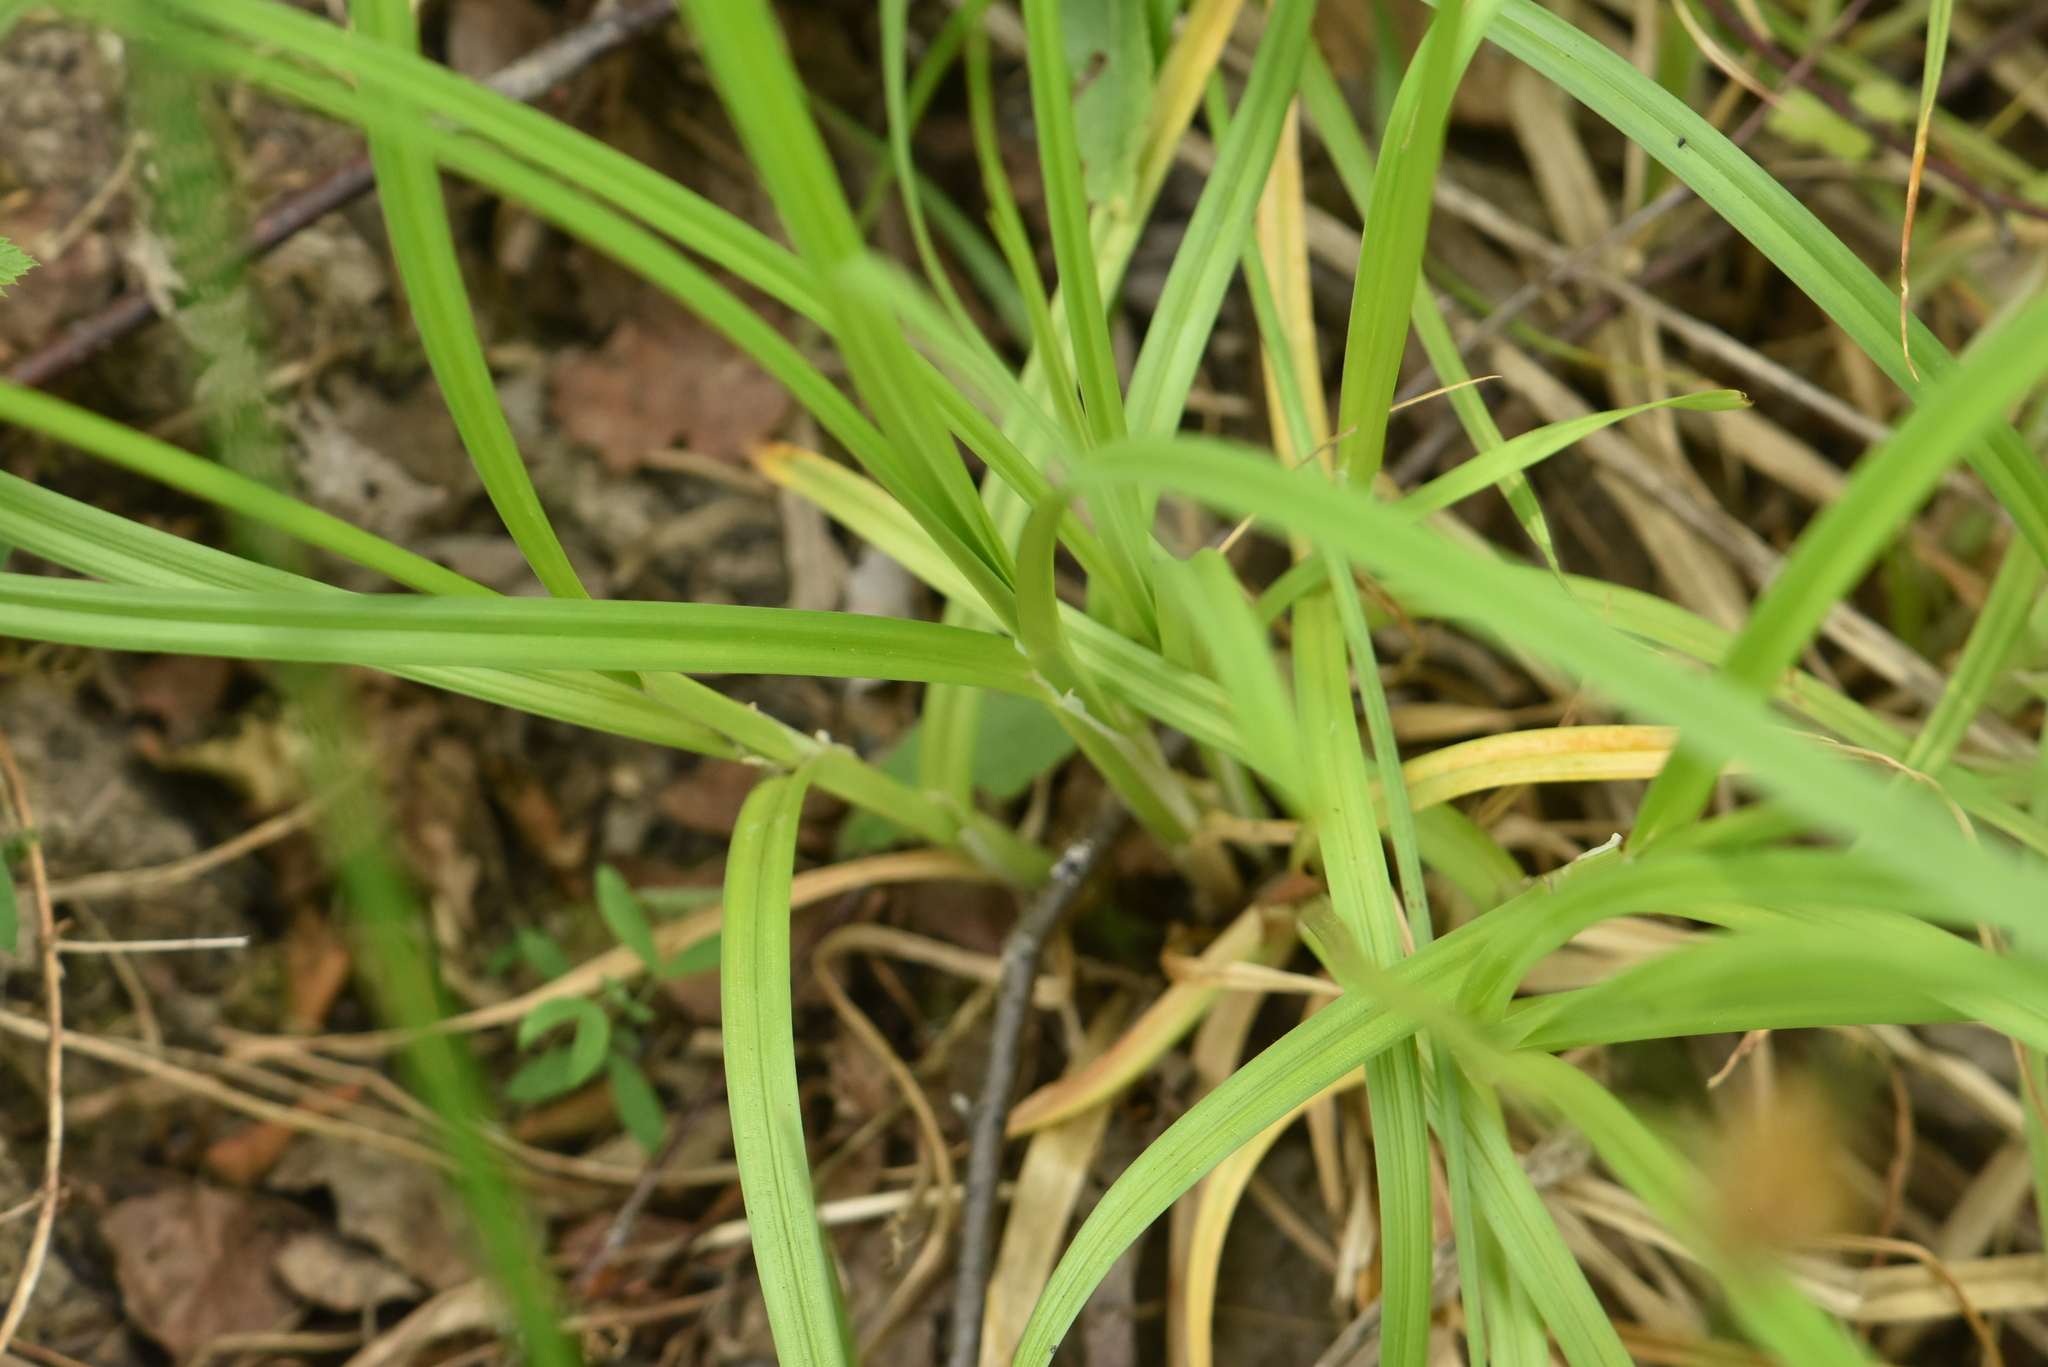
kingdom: Plantae
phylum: Tracheophyta
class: Liliopsida
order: Poales
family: Cyperaceae
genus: Carex
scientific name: Carex vulpina
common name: True fox-sedge
